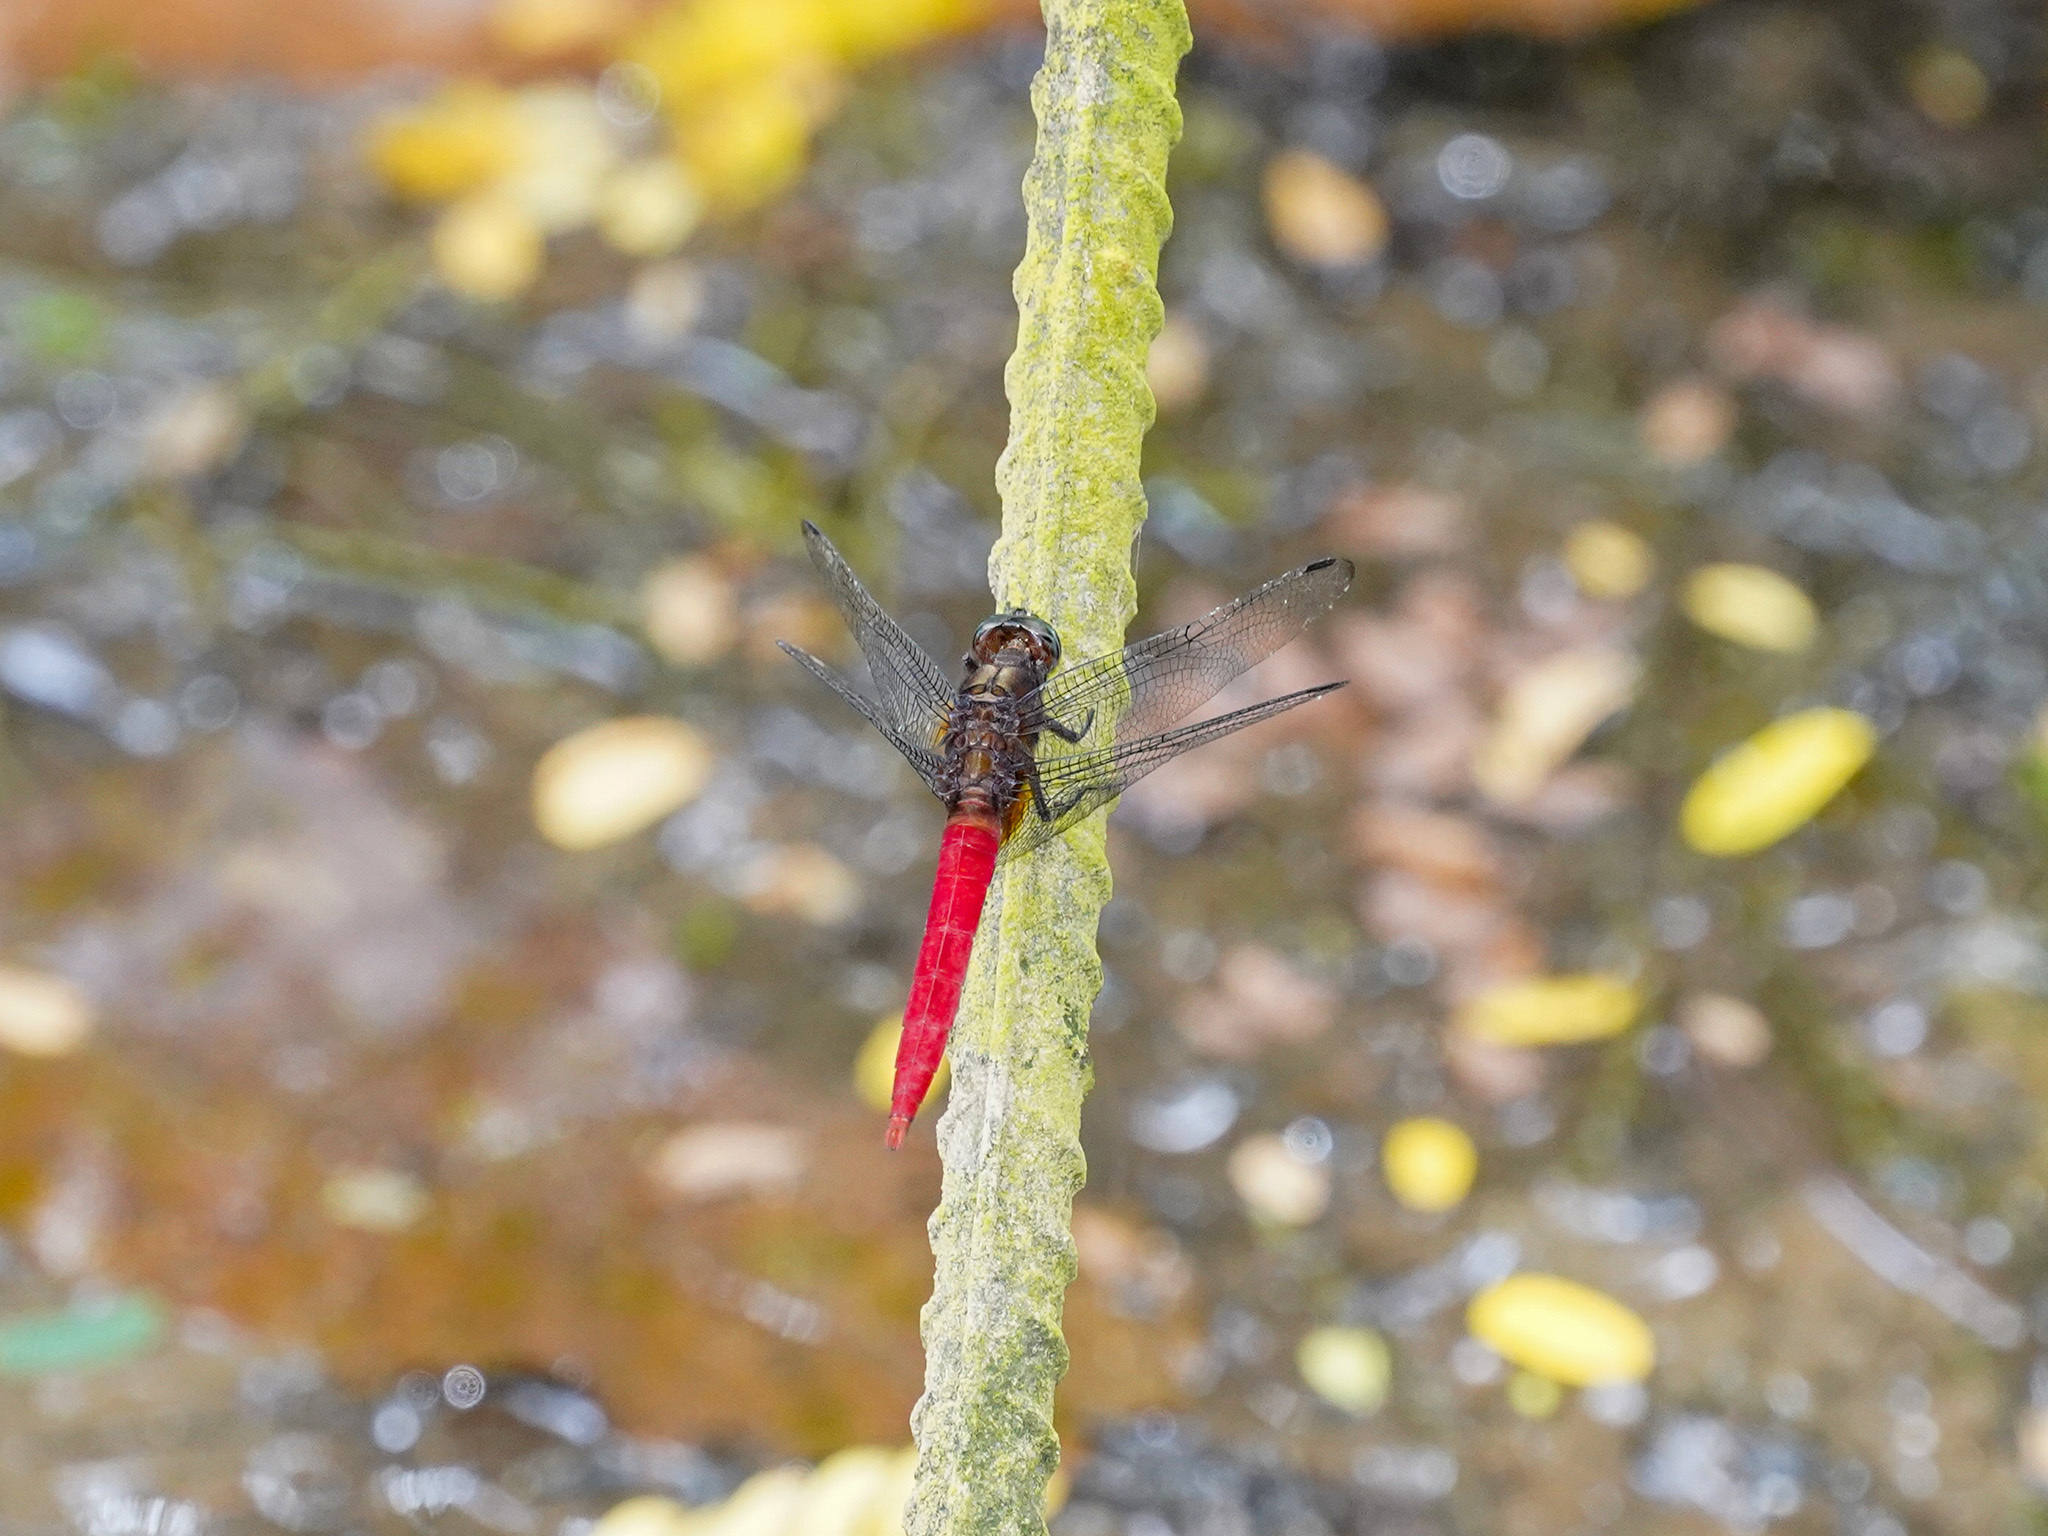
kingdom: Animalia
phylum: Arthropoda
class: Insecta
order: Odonata
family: Libellulidae
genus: Orthetrum
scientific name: Orthetrum chrysis
